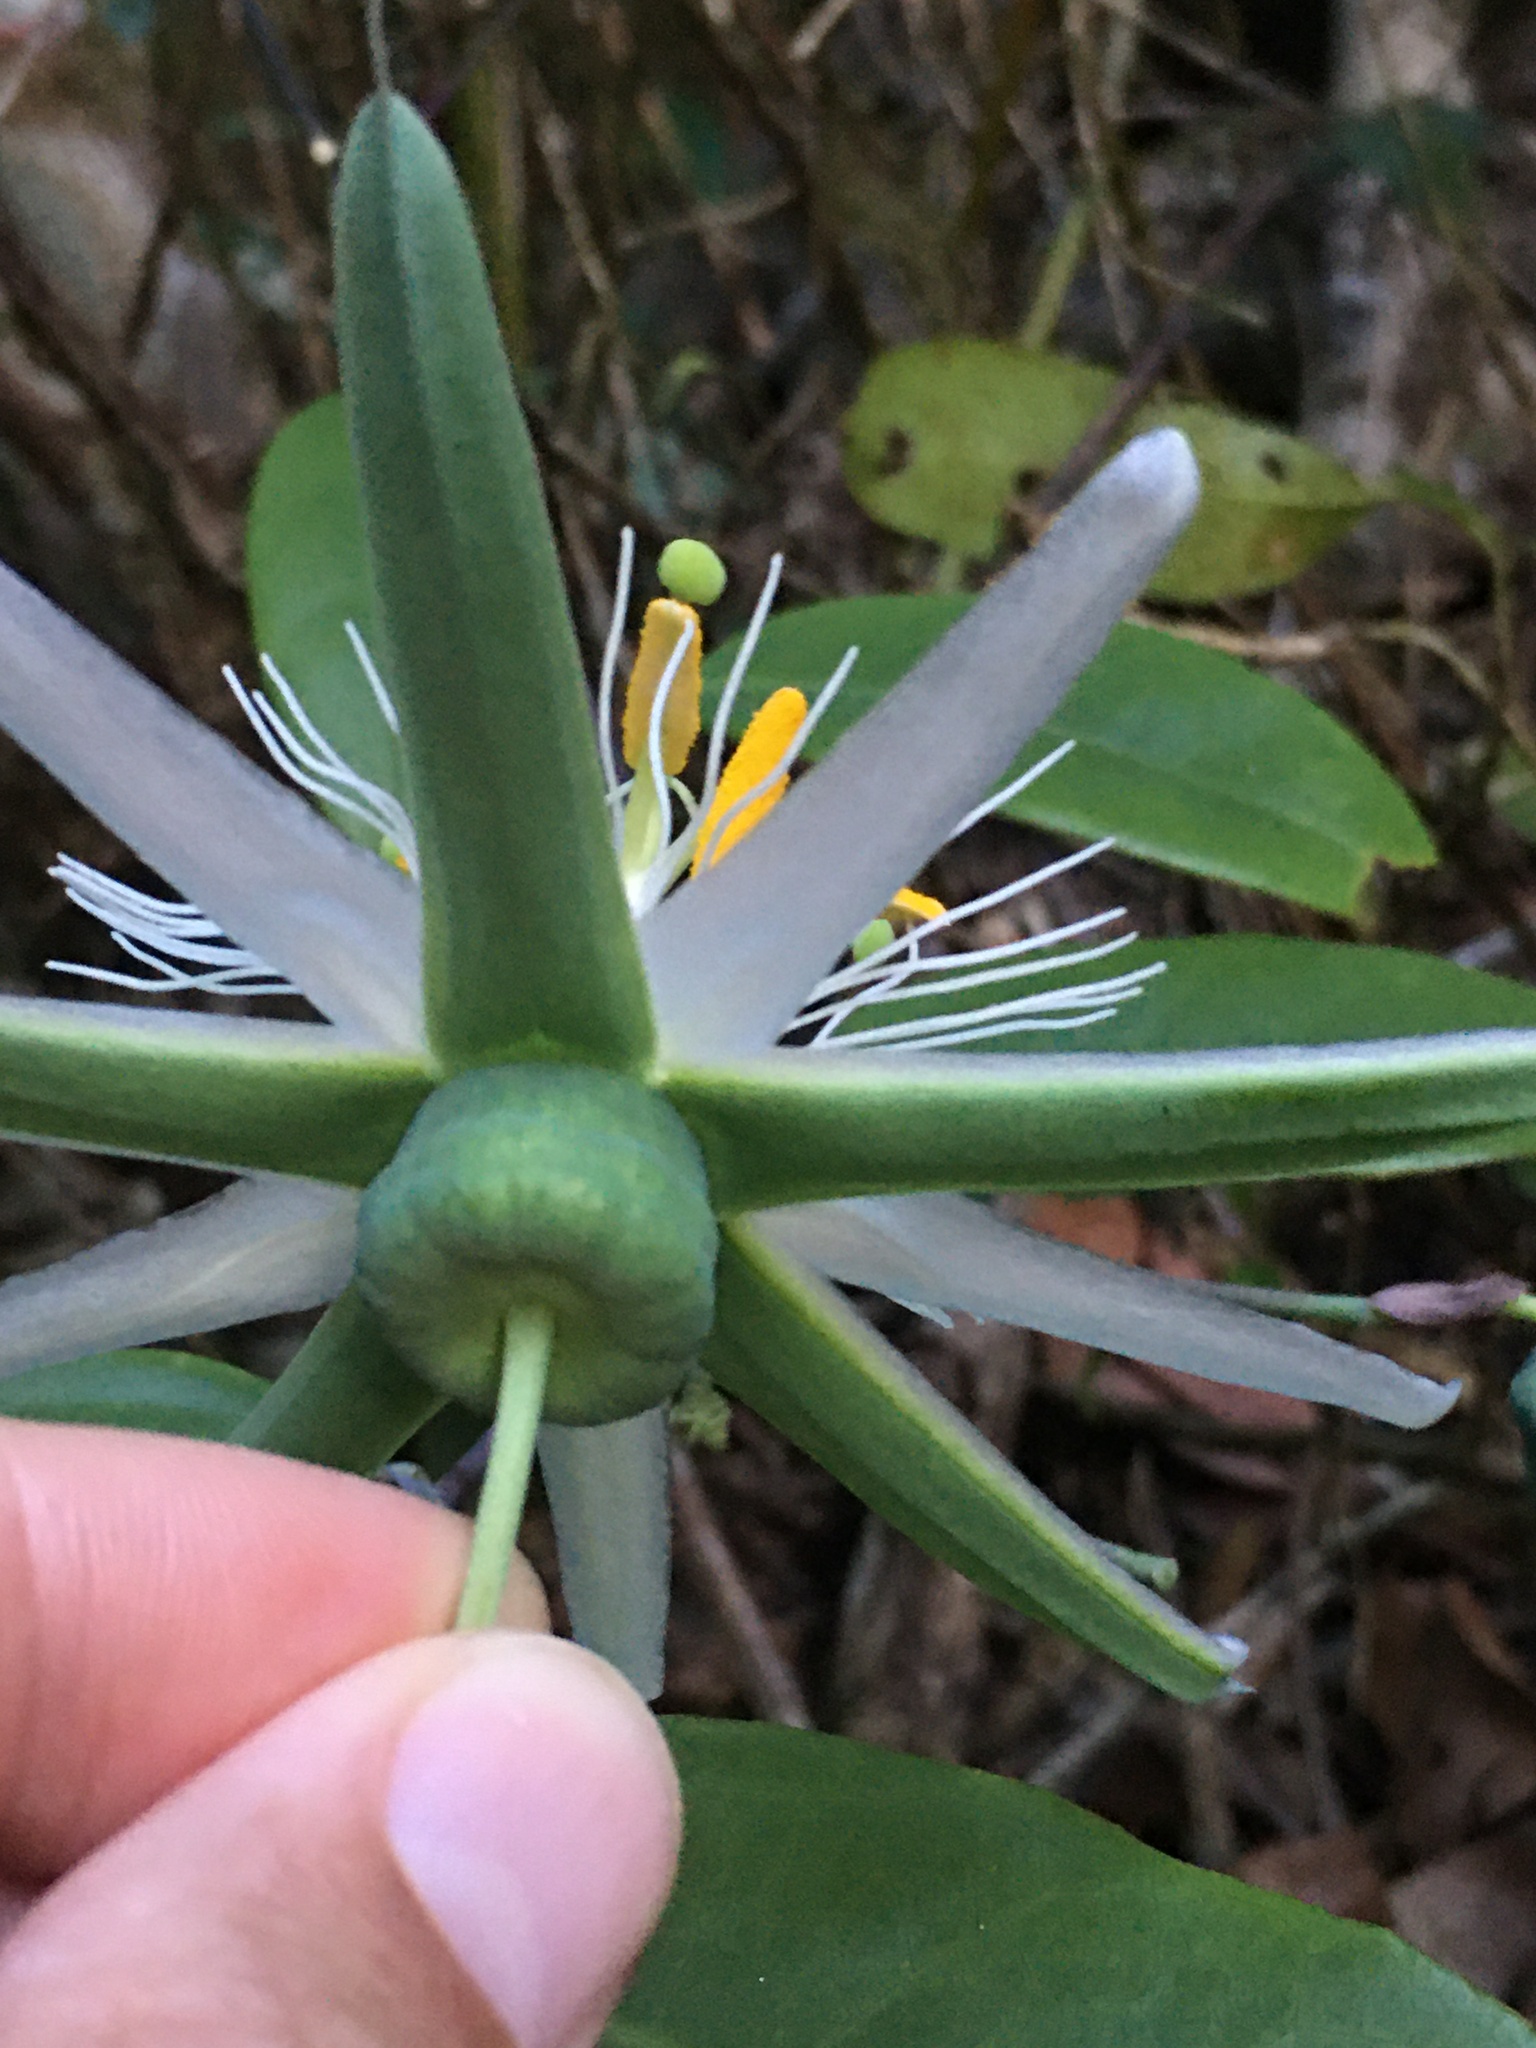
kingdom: Plantae
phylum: Tracheophyta
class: Magnoliopsida
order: Malpighiales
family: Passifloraceae
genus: Passiflora
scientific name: Passiflora silvestris
